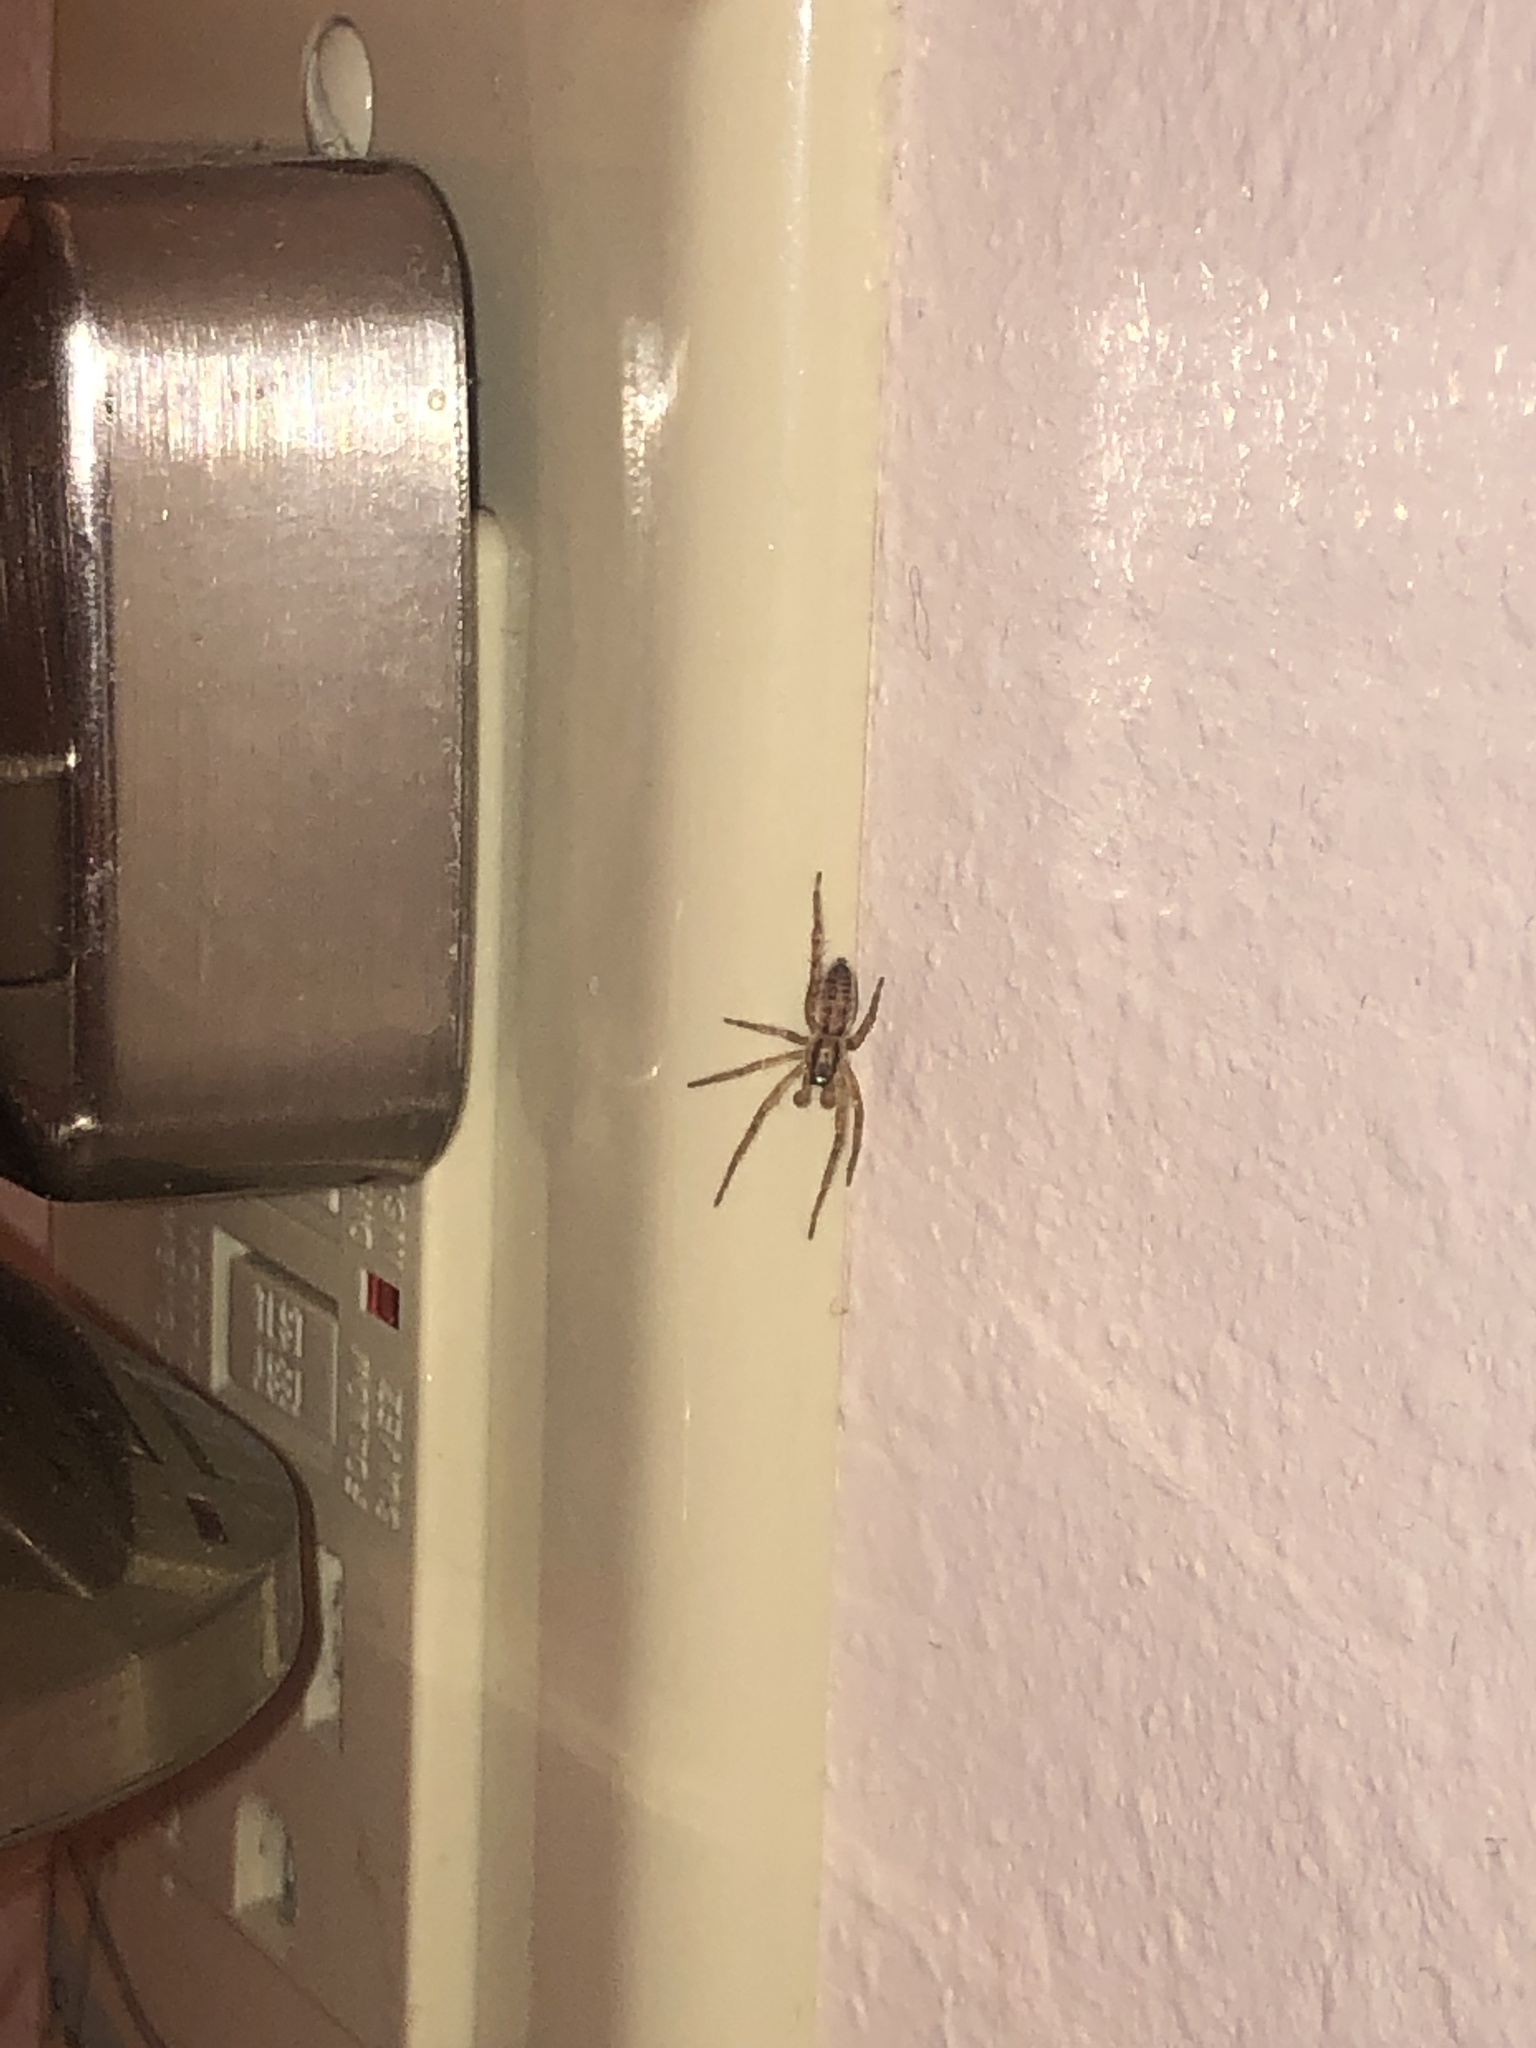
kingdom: Animalia
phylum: Arthropoda
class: Arachnida
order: Araneae
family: Anyphaenidae
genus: Hibana
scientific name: Hibana gracilis
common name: Garden ghost spider
